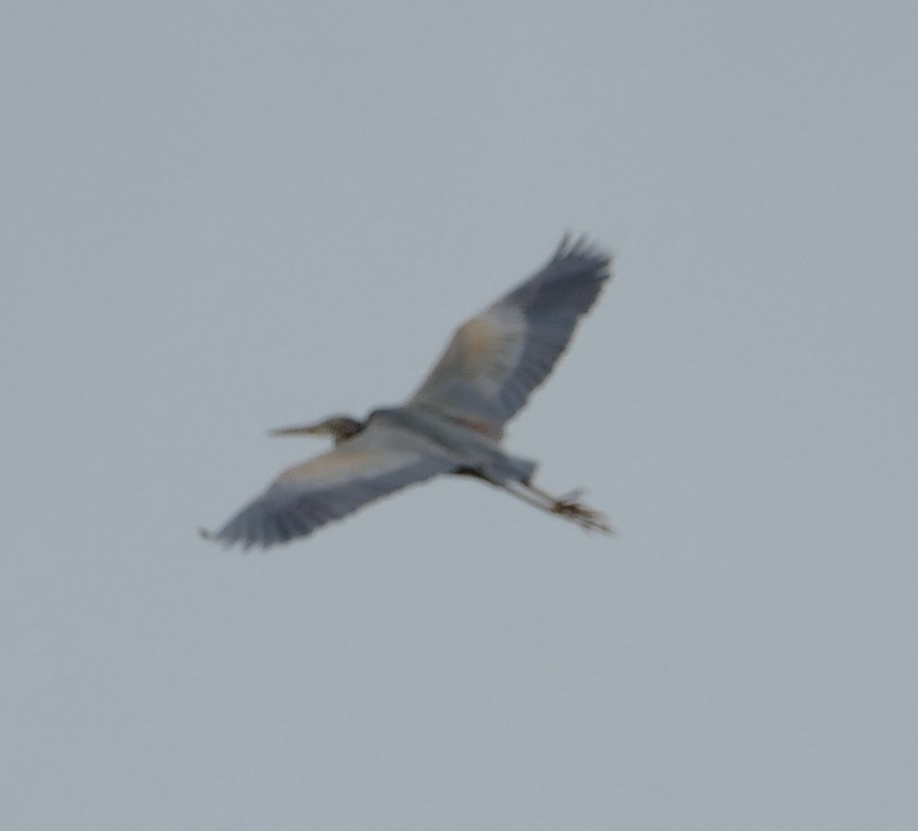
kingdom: Animalia
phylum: Chordata
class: Aves
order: Pelecaniformes
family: Ardeidae
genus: Ardea
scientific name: Ardea purpurea
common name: Purple heron
